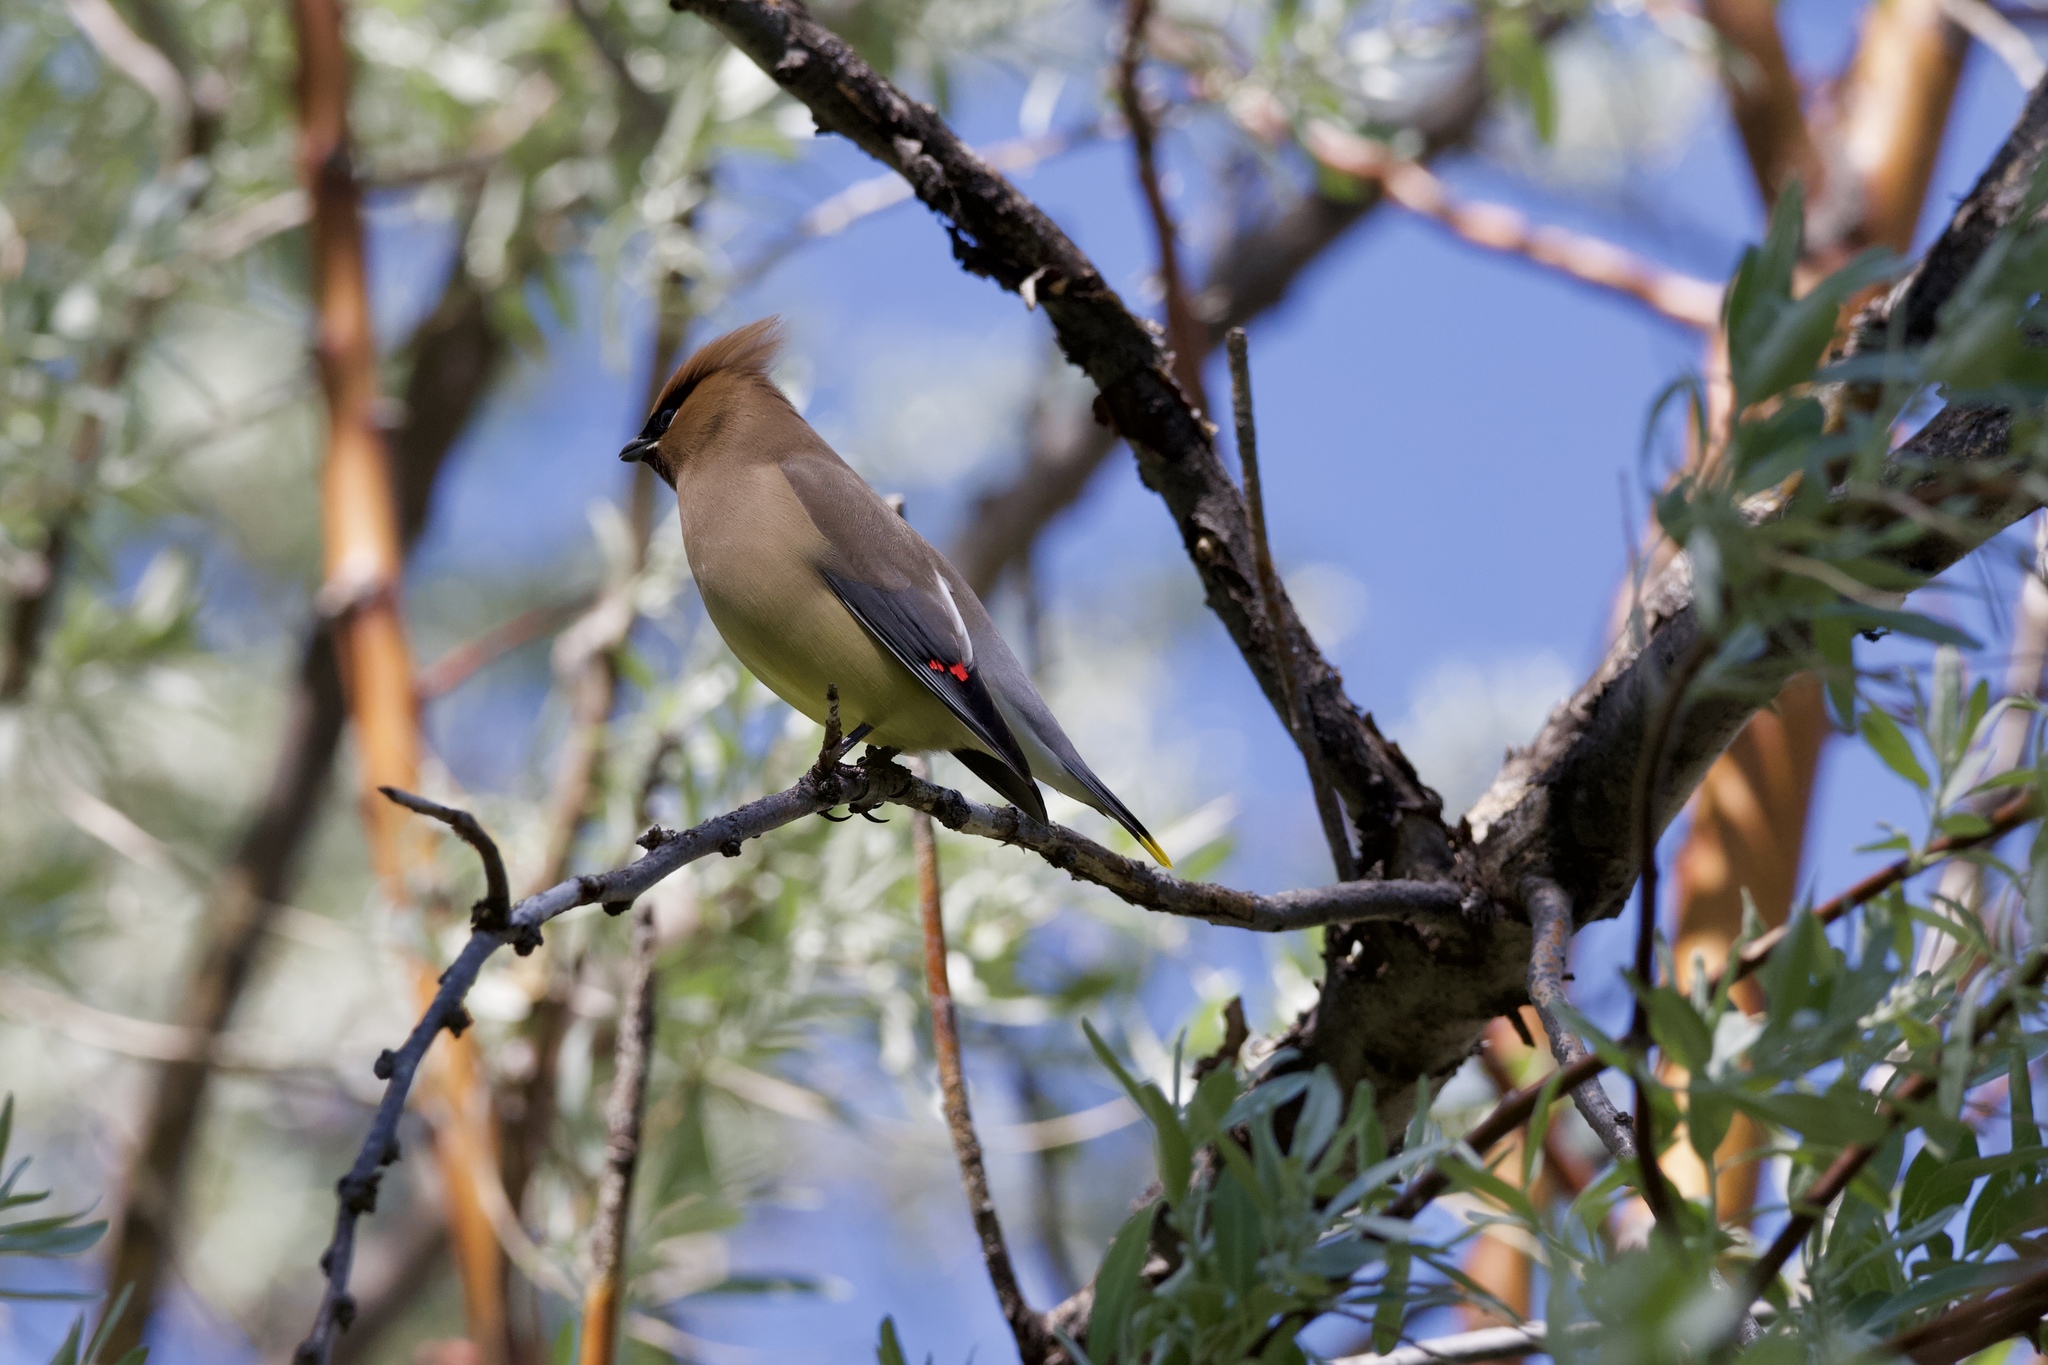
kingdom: Animalia
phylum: Chordata
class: Aves
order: Passeriformes
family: Bombycillidae
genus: Bombycilla
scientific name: Bombycilla cedrorum
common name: Cedar waxwing
